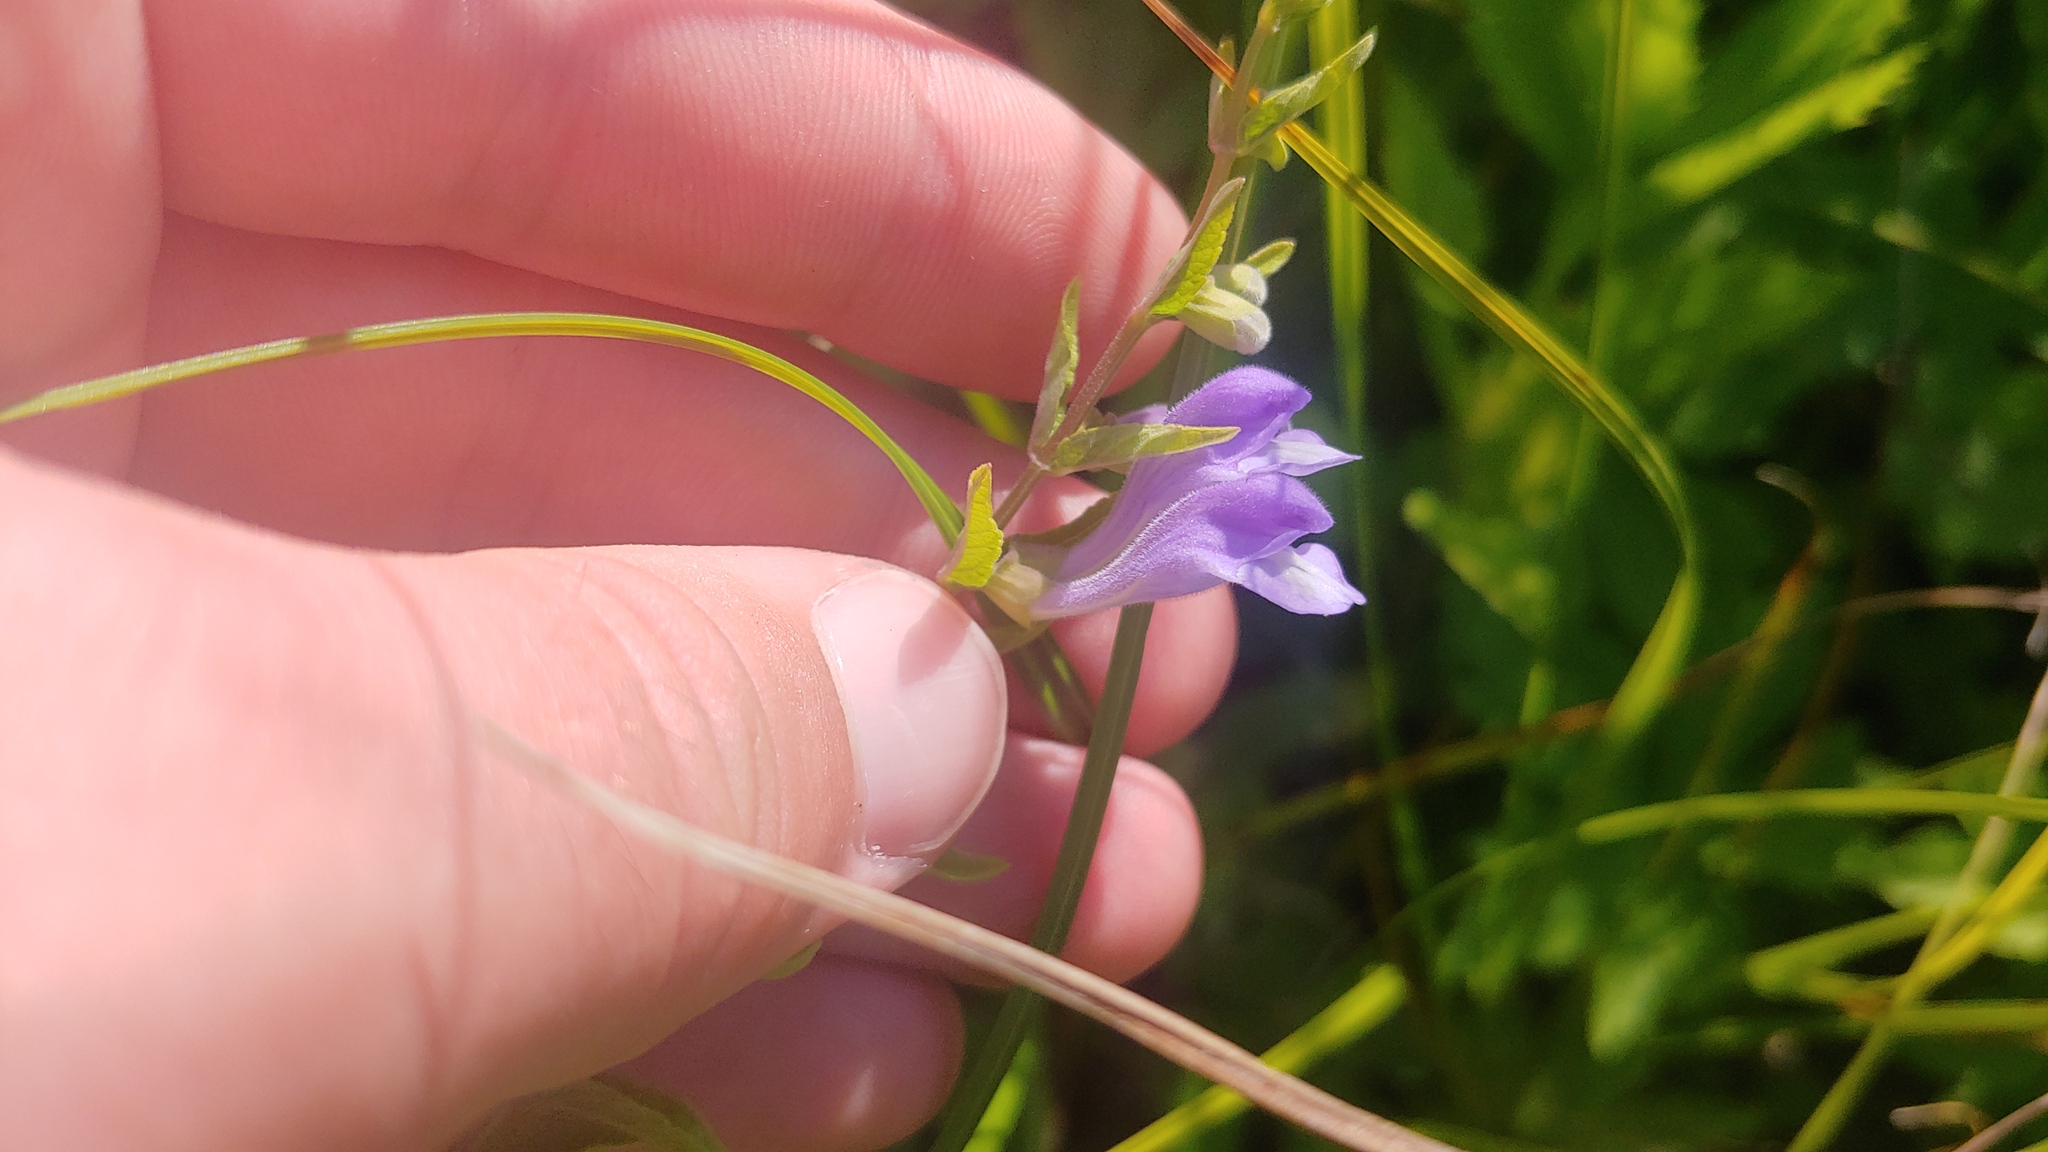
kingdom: Plantae
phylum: Tracheophyta
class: Magnoliopsida
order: Lamiales
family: Lamiaceae
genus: Scutellaria
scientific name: Scutellaria galericulata
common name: Skullcap
